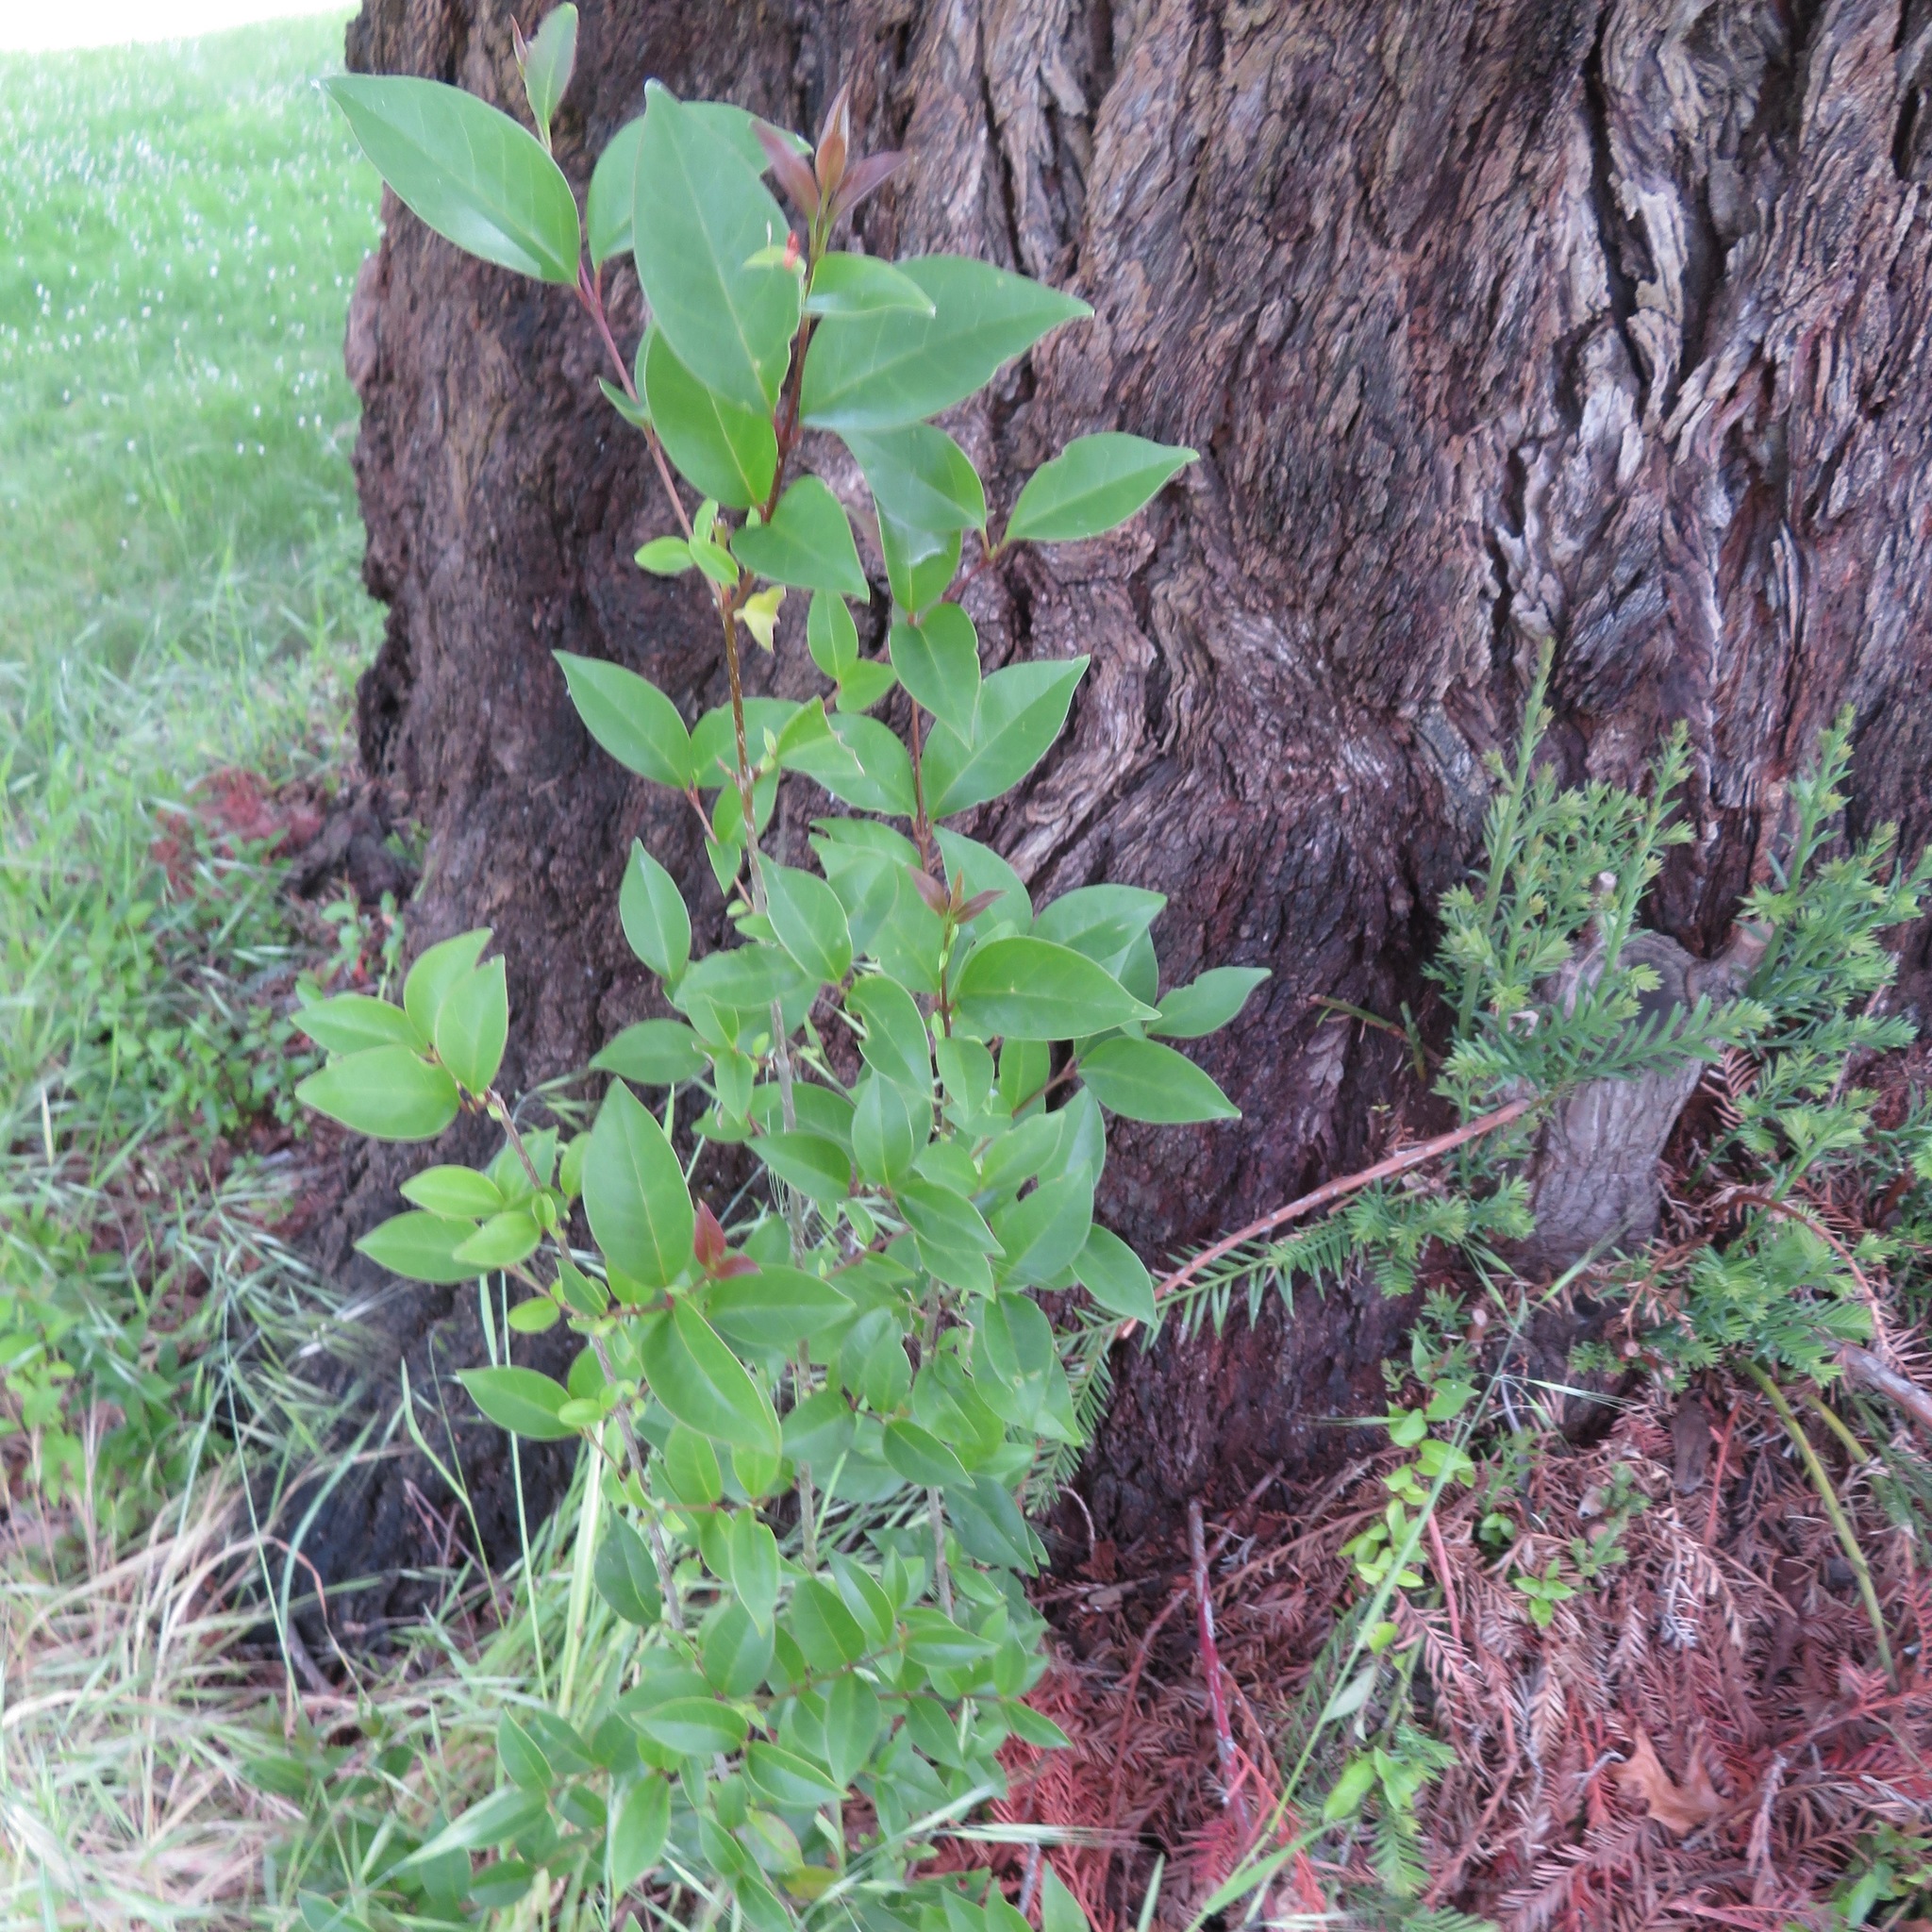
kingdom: Plantae
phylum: Tracheophyta
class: Magnoliopsida
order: Lamiales
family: Oleaceae
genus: Ligustrum
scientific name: Ligustrum lucidum
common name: Glossy privet
